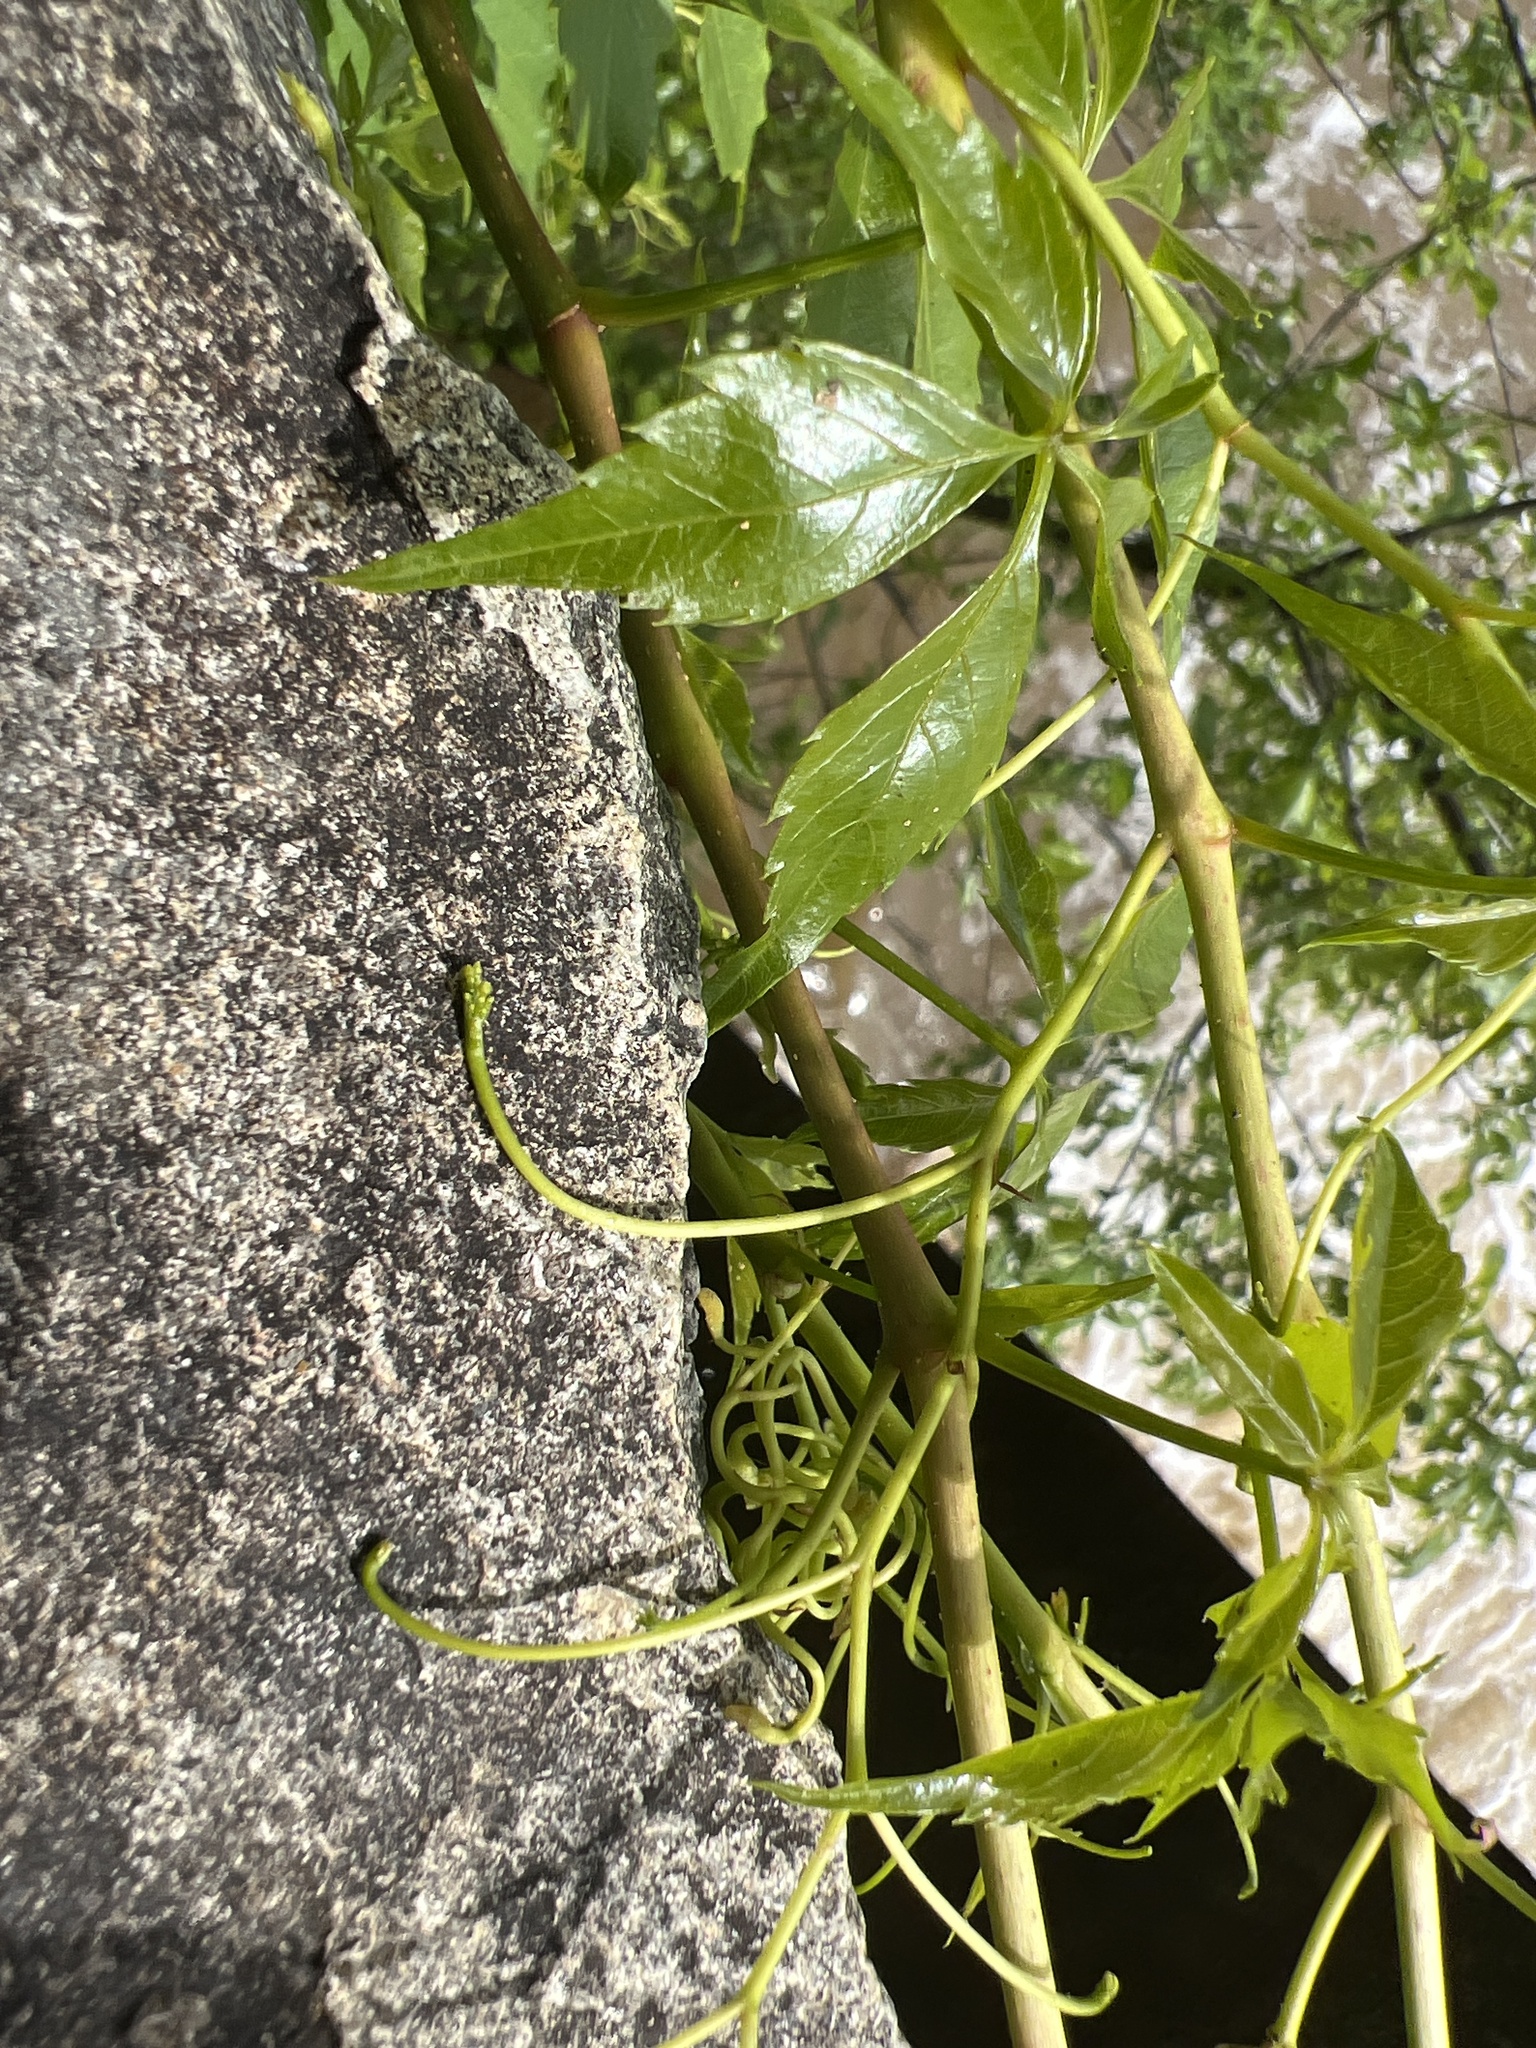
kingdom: Plantae
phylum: Tracheophyta
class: Magnoliopsida
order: Vitales
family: Vitaceae
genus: Parthenocissus
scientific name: Parthenocissus quinquefolia
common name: Virginia-creeper
